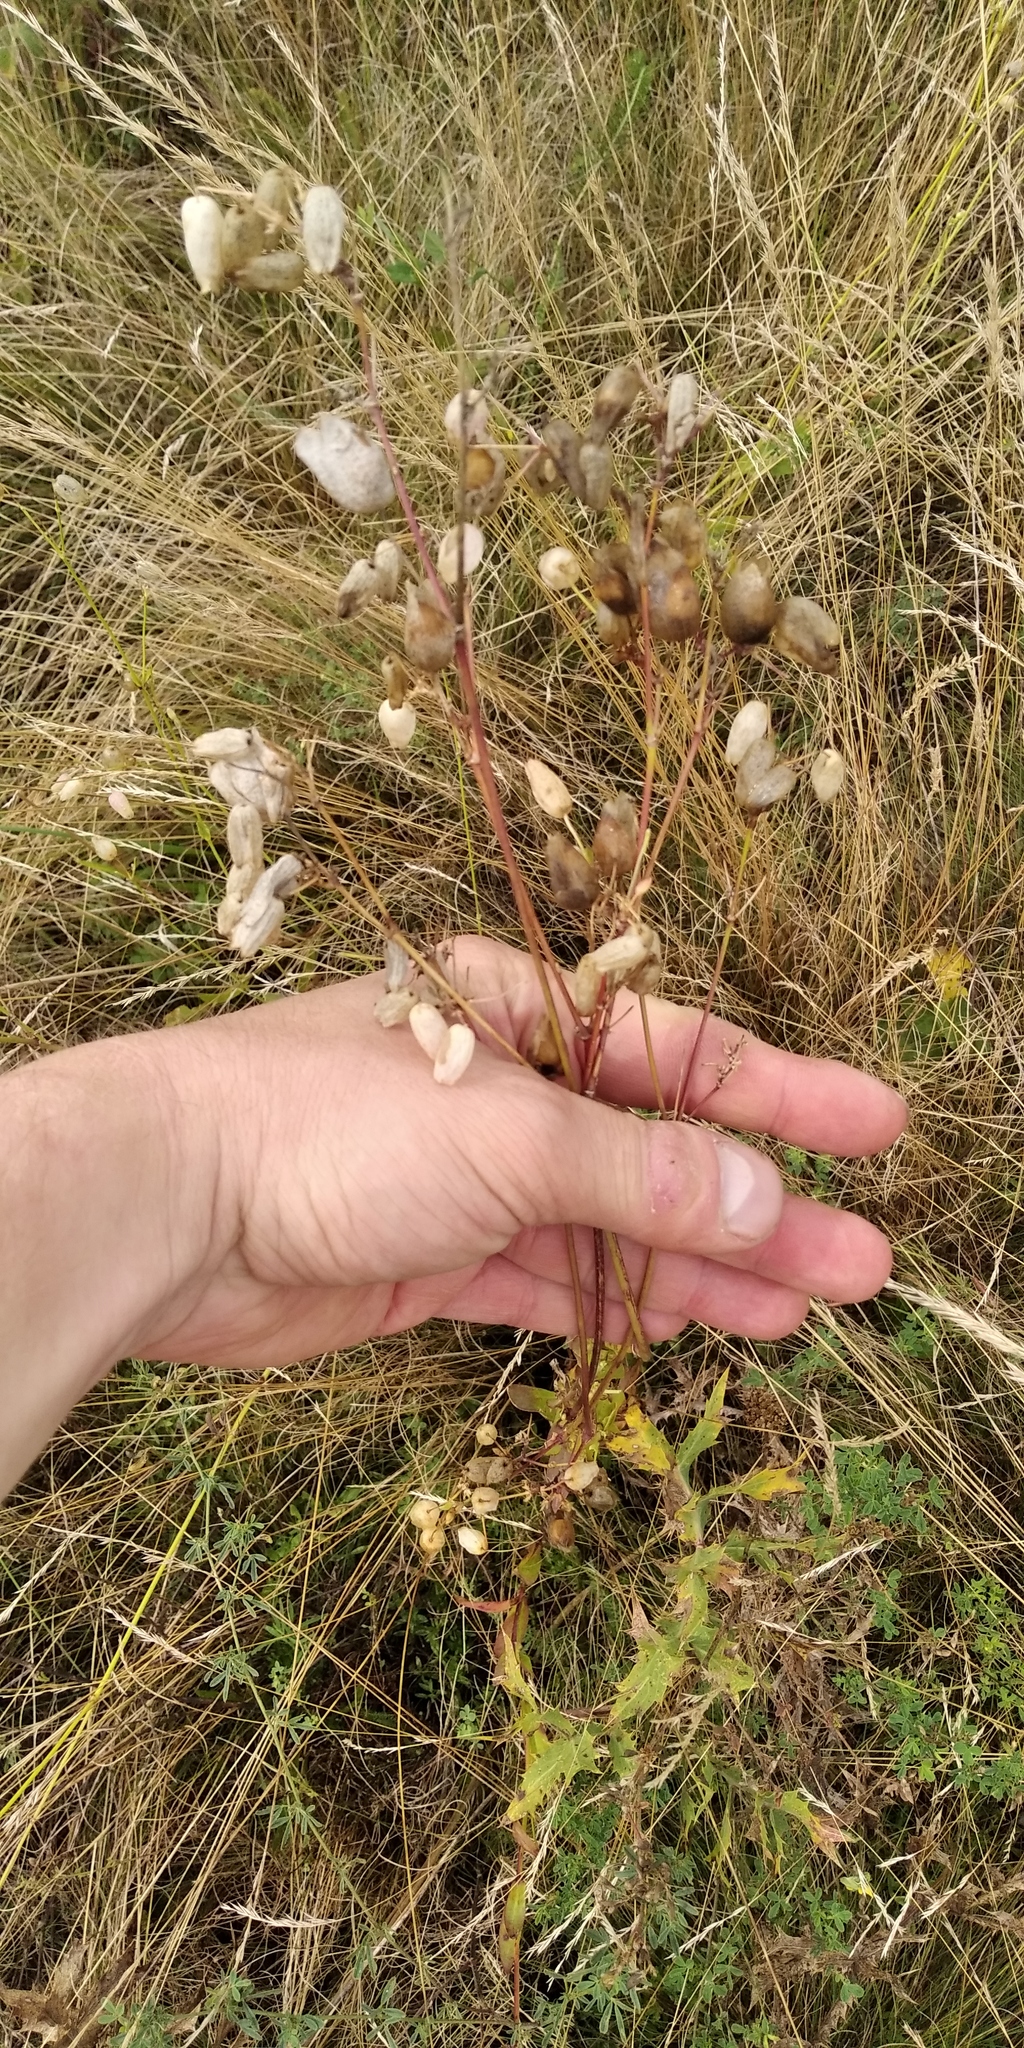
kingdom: Plantae
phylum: Tracheophyta
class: Magnoliopsida
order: Caryophyllales
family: Caryophyllaceae
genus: Silene
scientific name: Silene vulgaris
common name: Bladder campion
